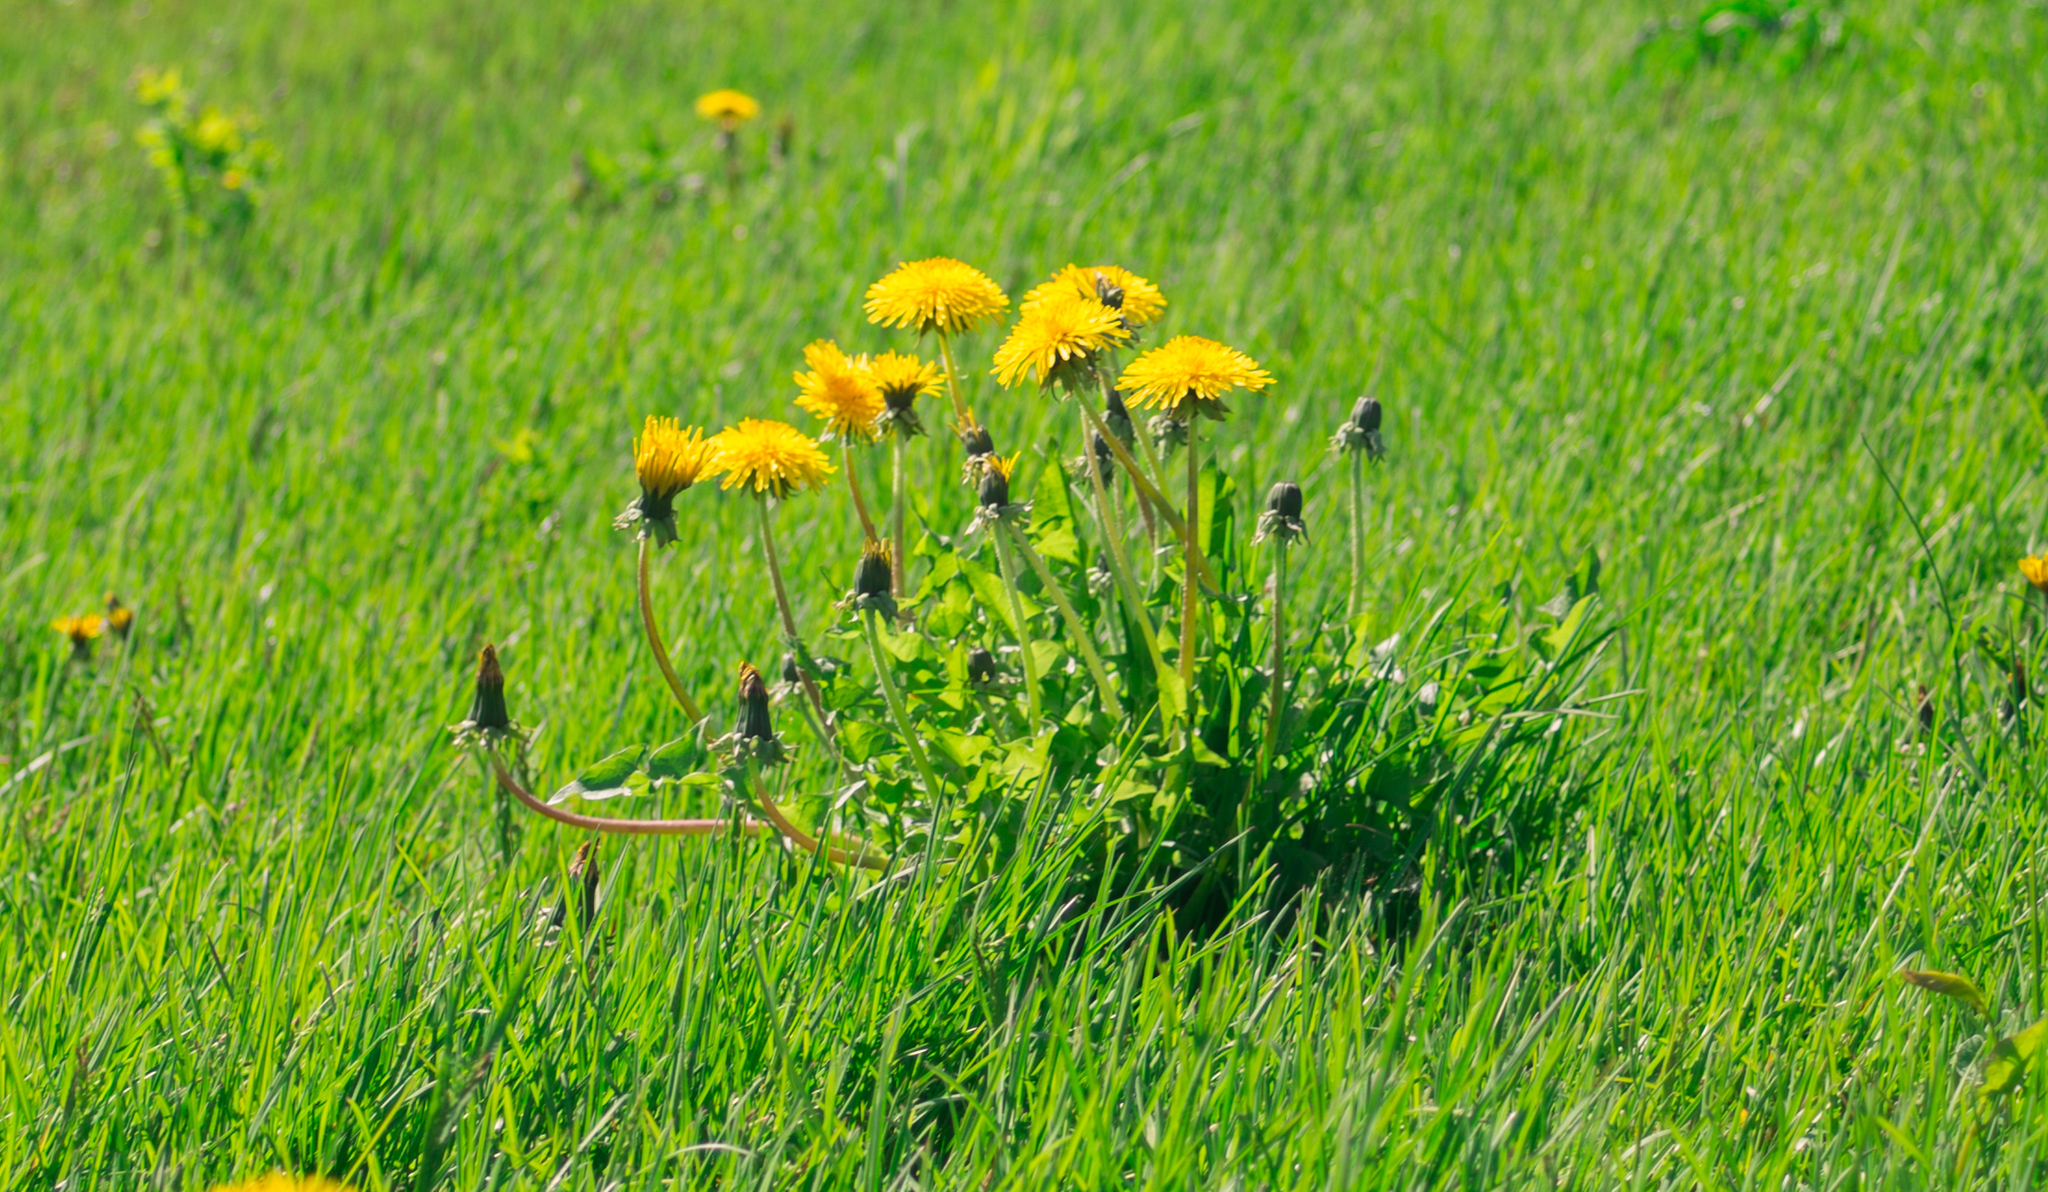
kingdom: Plantae
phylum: Tracheophyta
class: Magnoliopsida
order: Asterales
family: Asteraceae
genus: Taraxacum
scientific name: Taraxacum officinale
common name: Common dandelion
